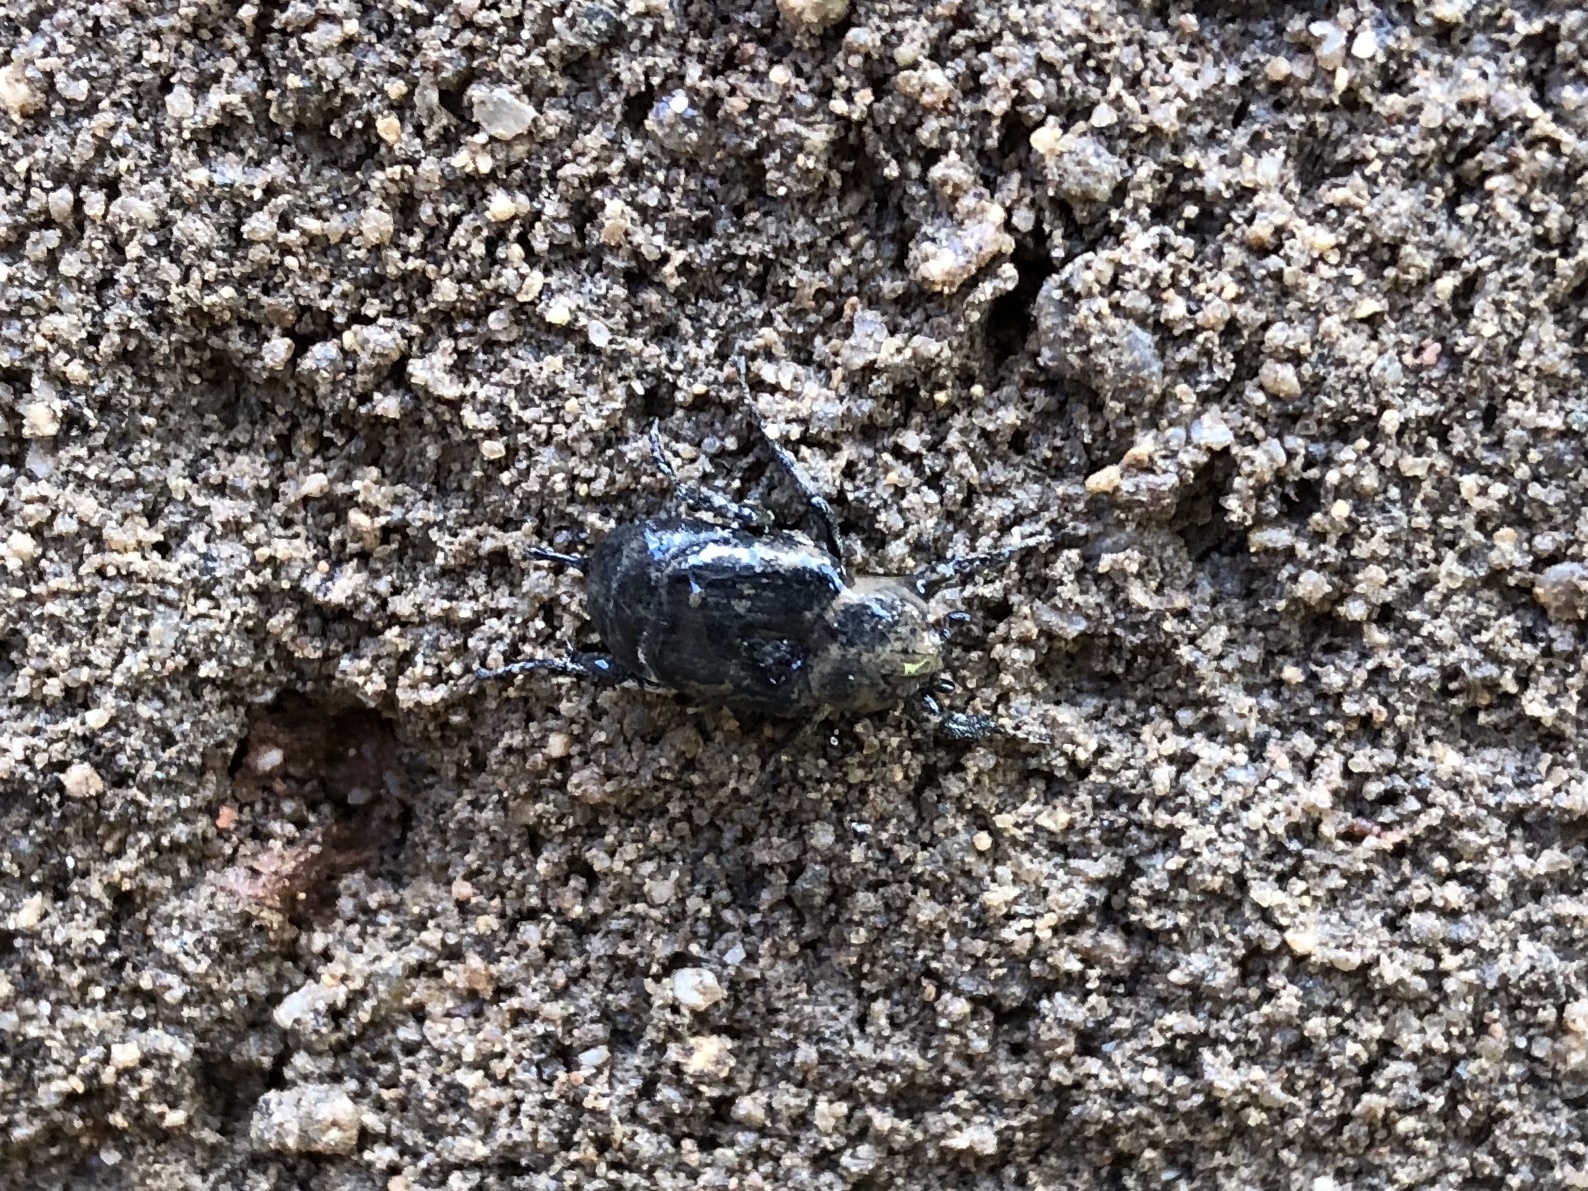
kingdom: Animalia
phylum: Arthropoda
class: Insecta
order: Coleoptera
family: Scarabaeidae
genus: Valgus
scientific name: Valgus hemipterus
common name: Bug flower chafer
